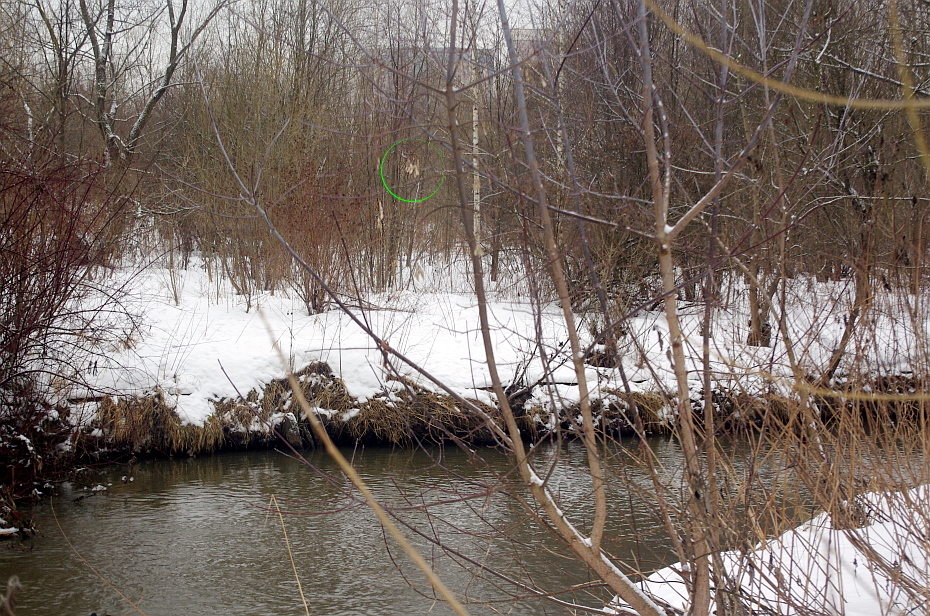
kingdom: Plantae
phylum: Tracheophyta
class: Magnoliopsida
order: Sapindales
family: Sapindaceae
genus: Acer
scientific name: Acer negundo
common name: Ashleaf maple
